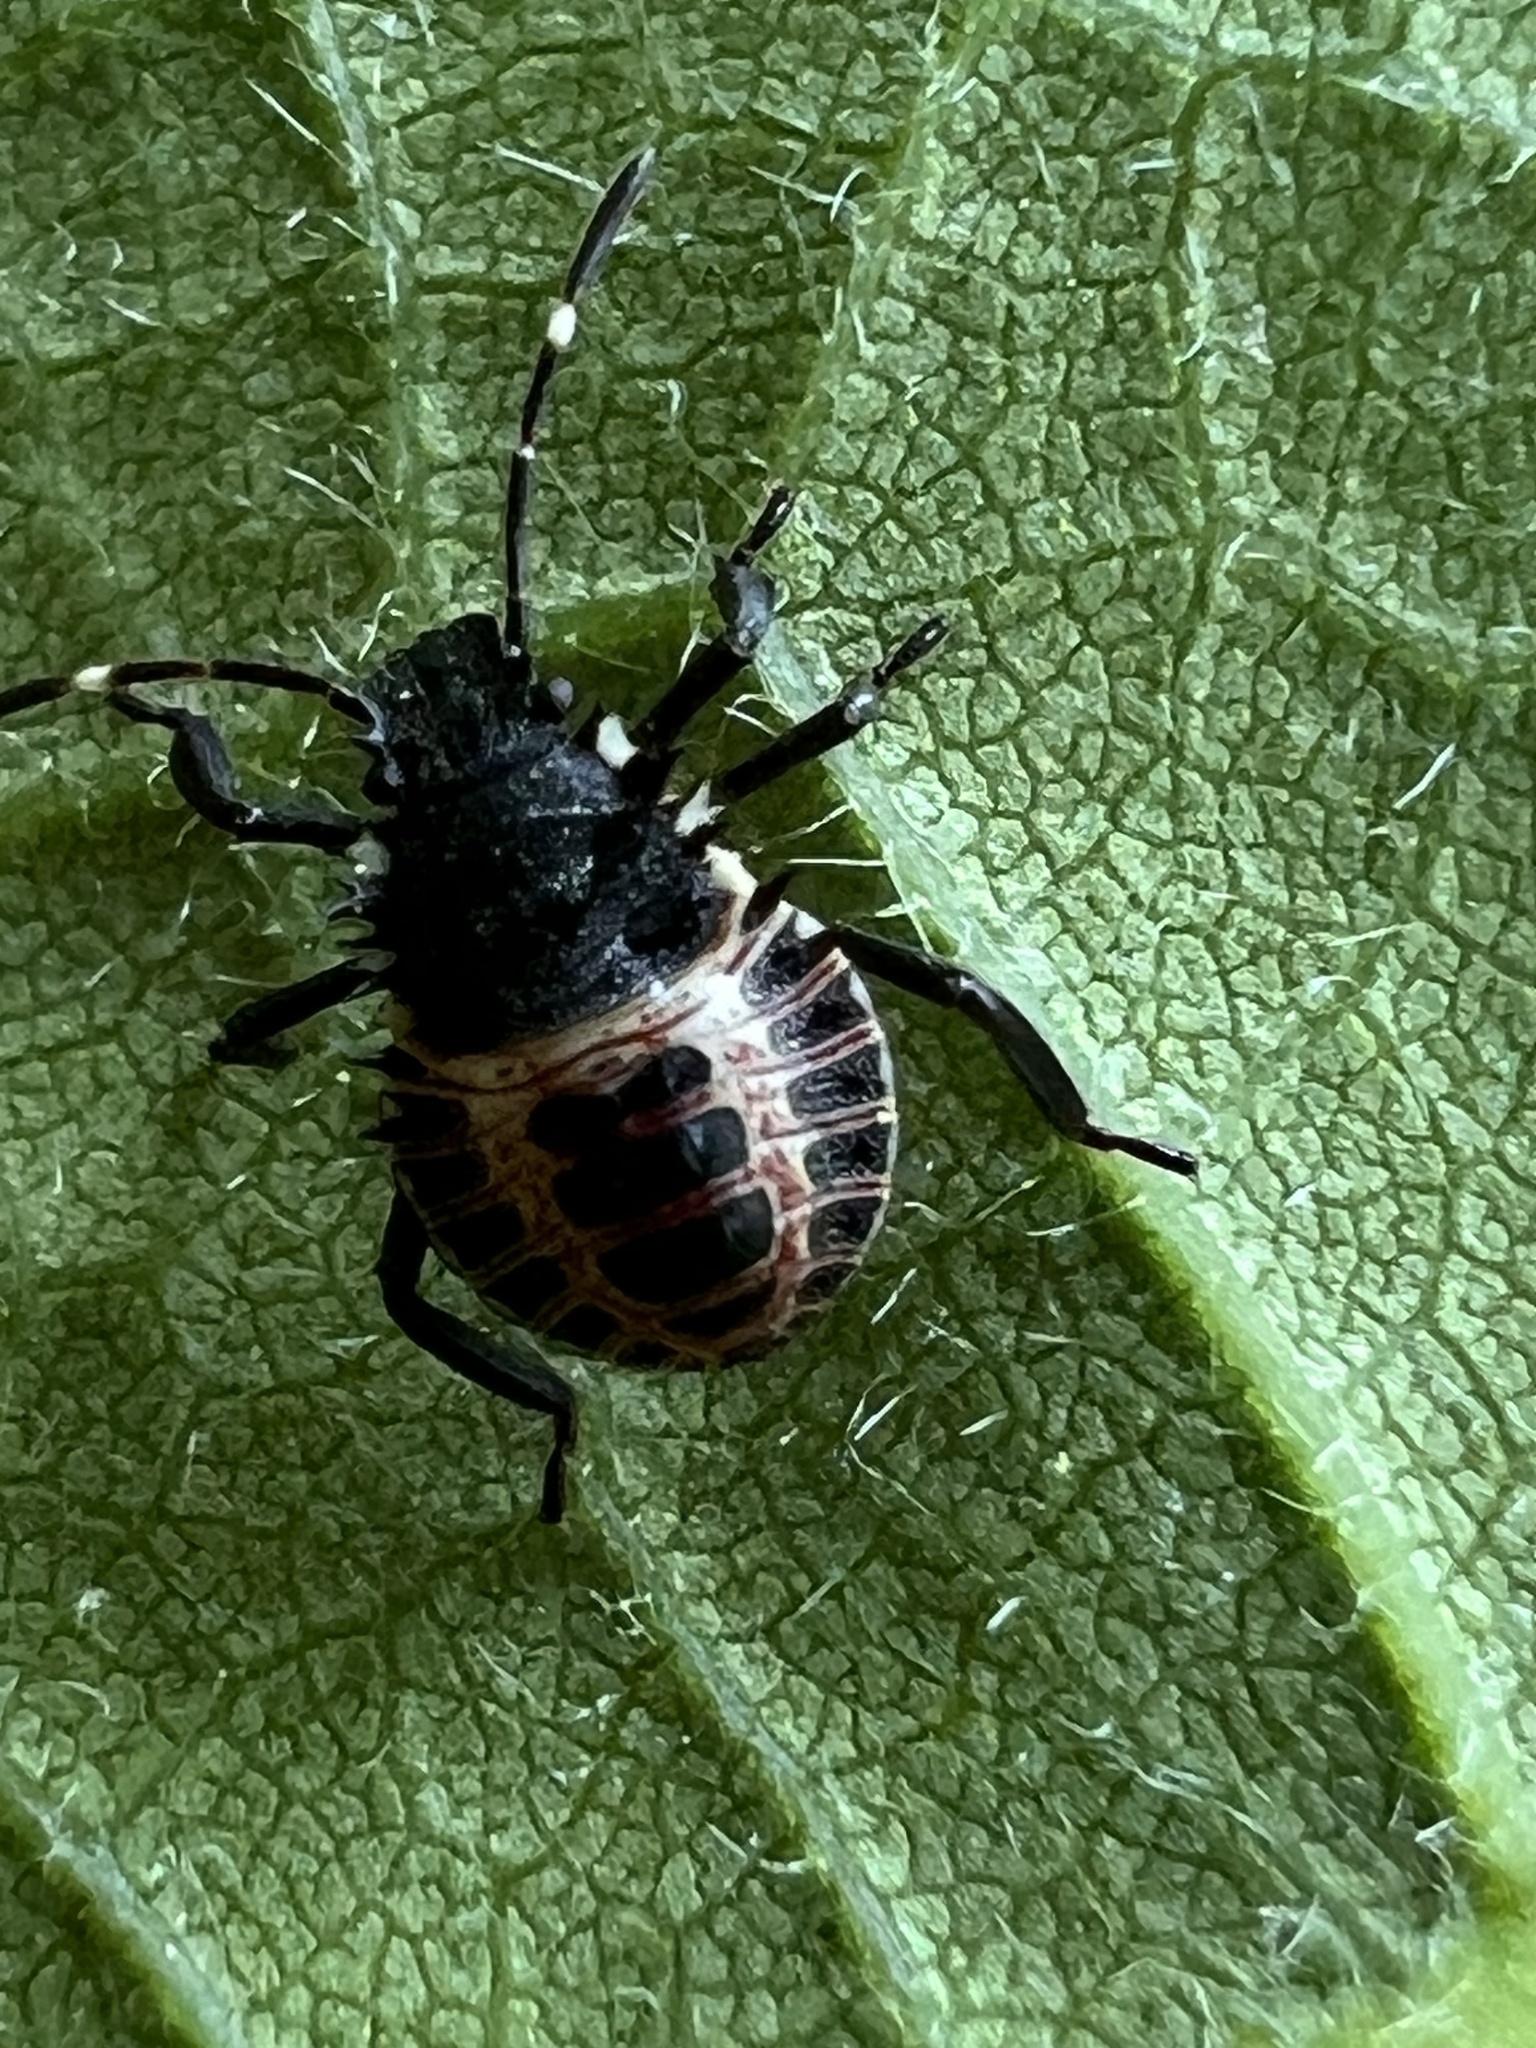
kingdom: Animalia
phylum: Arthropoda
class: Insecta
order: Hemiptera
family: Pentatomidae
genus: Halyomorpha
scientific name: Halyomorpha halys
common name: Brown marmorated stink bug
